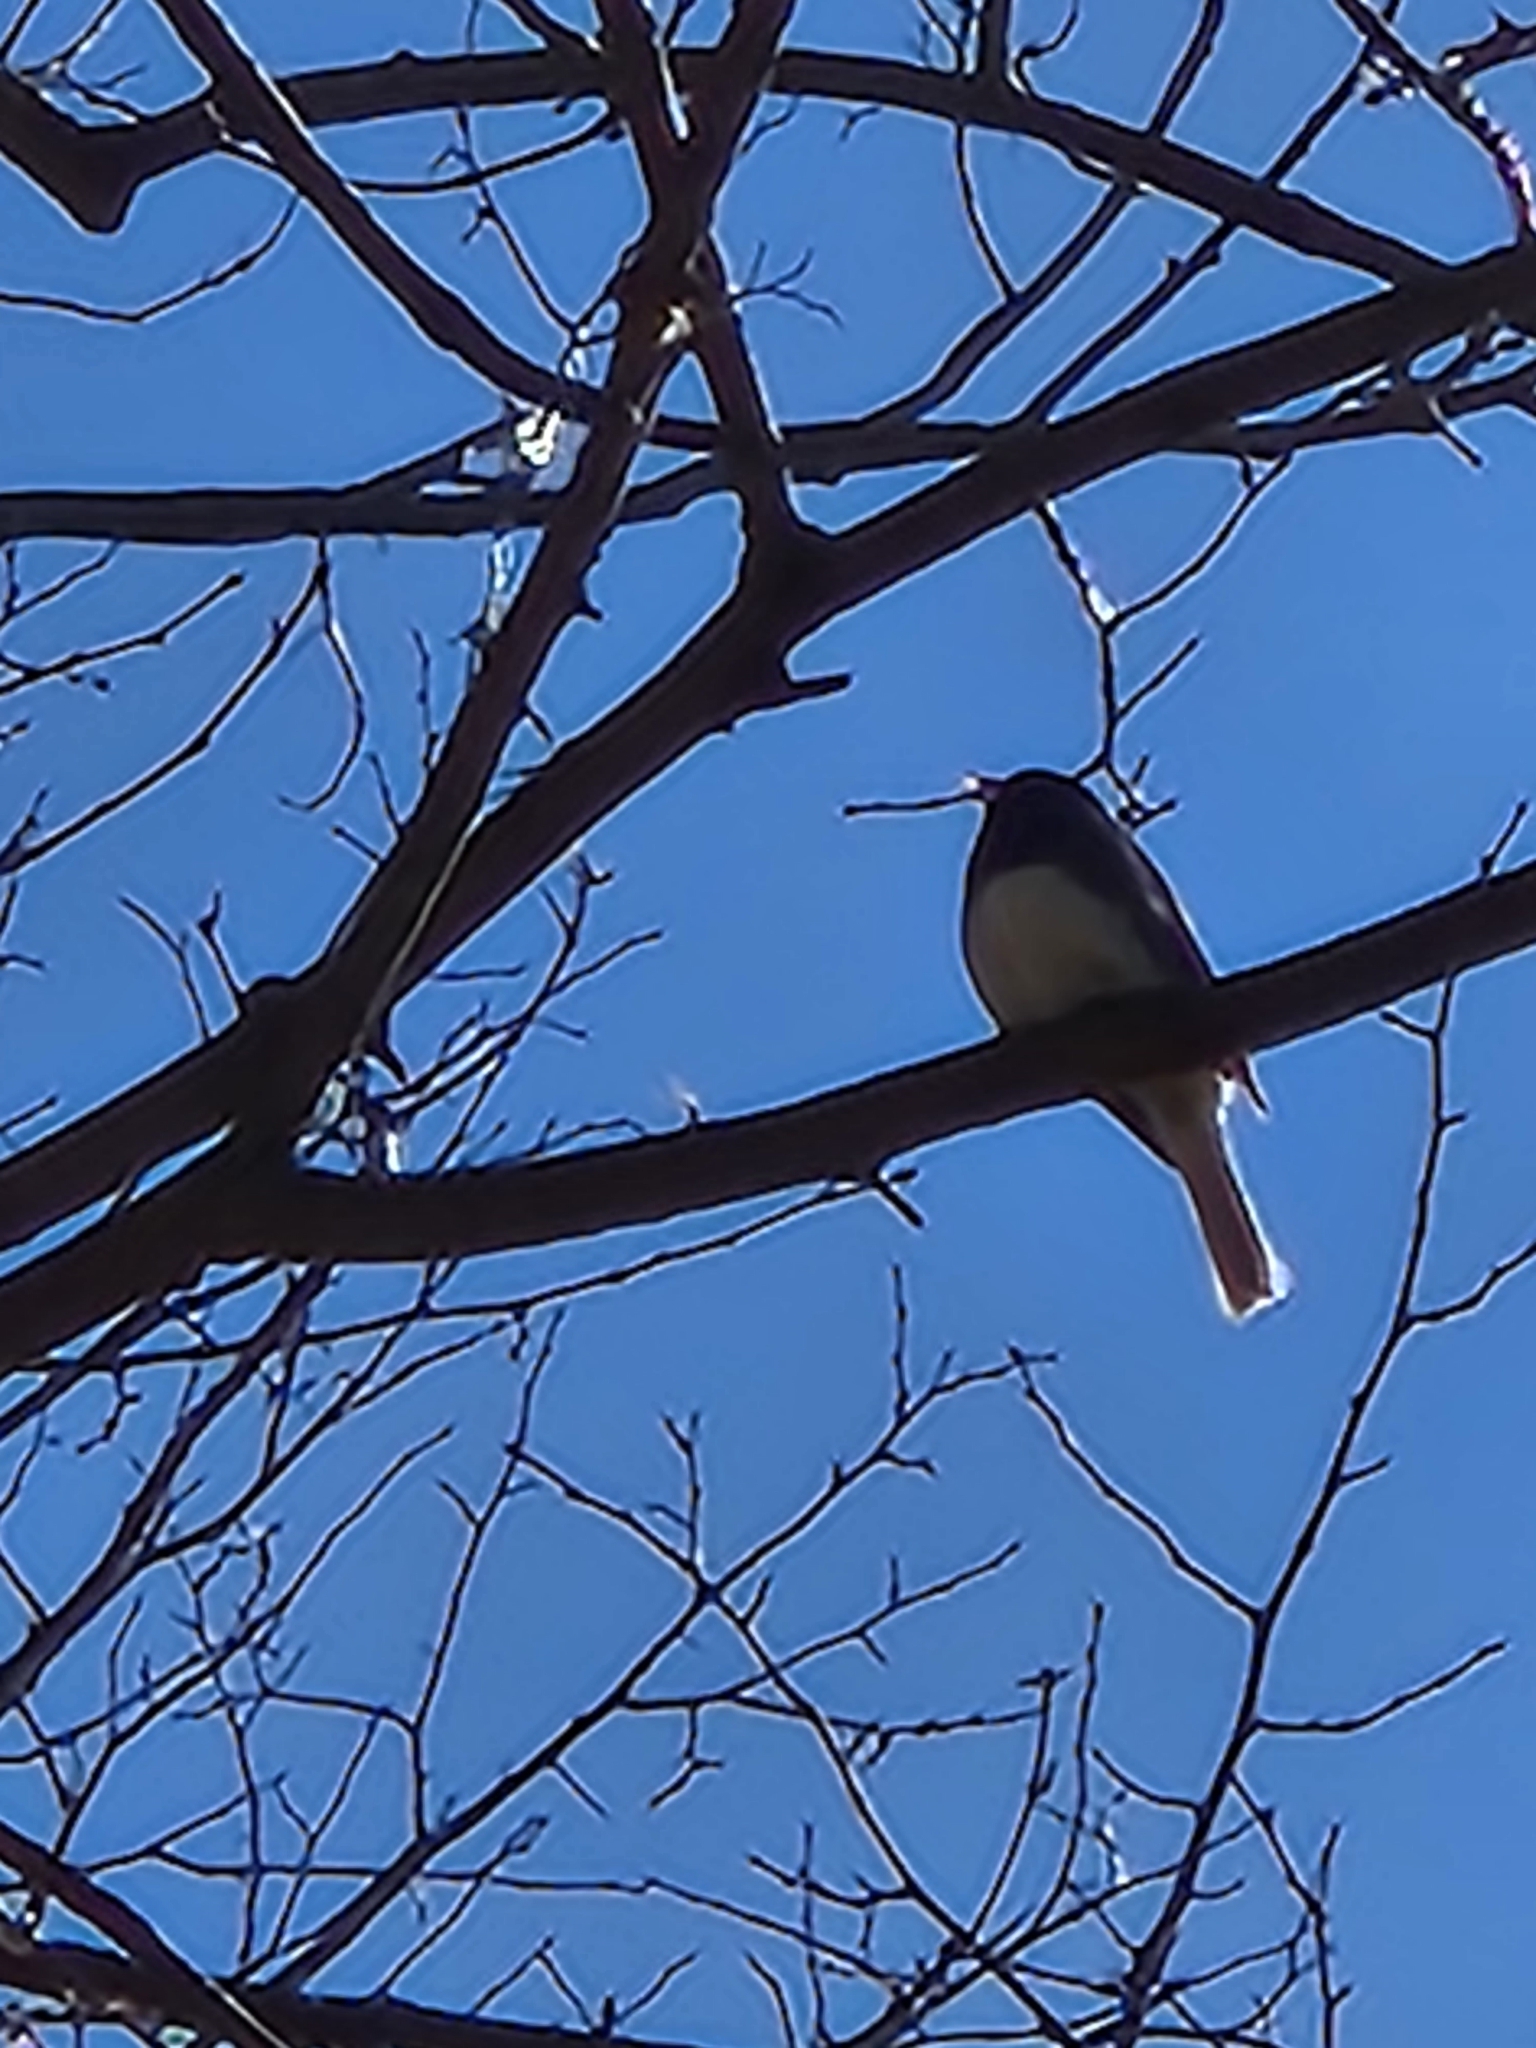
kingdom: Animalia
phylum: Chordata
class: Aves
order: Passeriformes
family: Passerellidae
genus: Junco
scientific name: Junco hyemalis
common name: Dark-eyed junco
